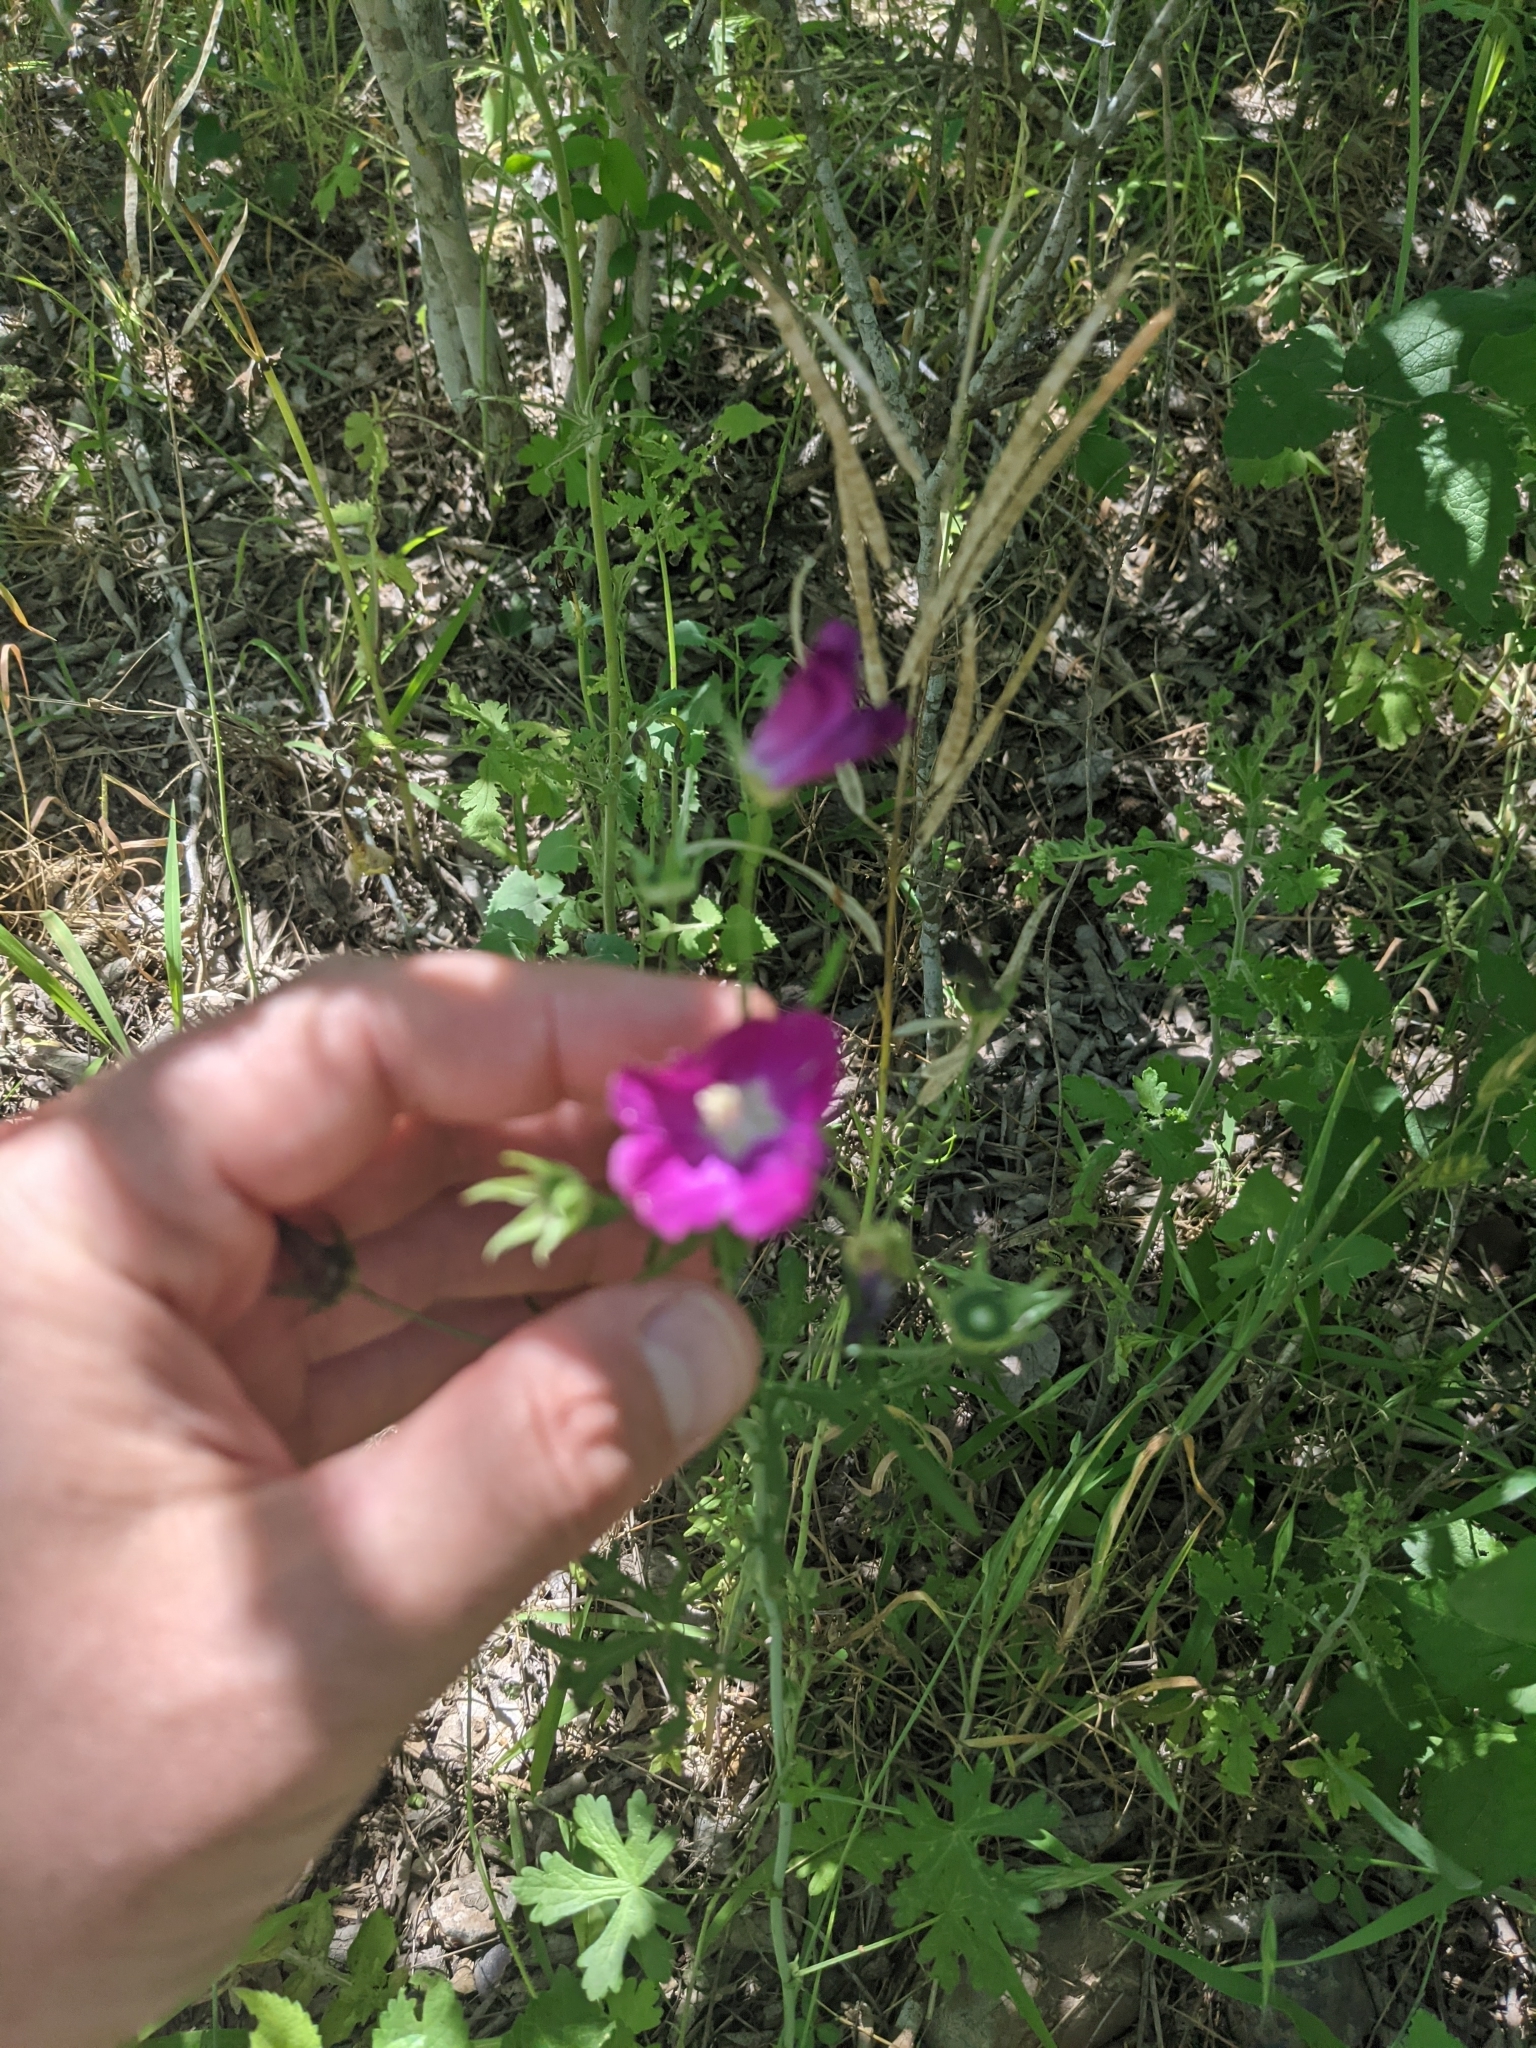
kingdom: Plantae
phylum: Tracheophyta
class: Magnoliopsida
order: Malvales
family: Malvaceae
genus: Callirhoe
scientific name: Callirhoe leiocarpa
